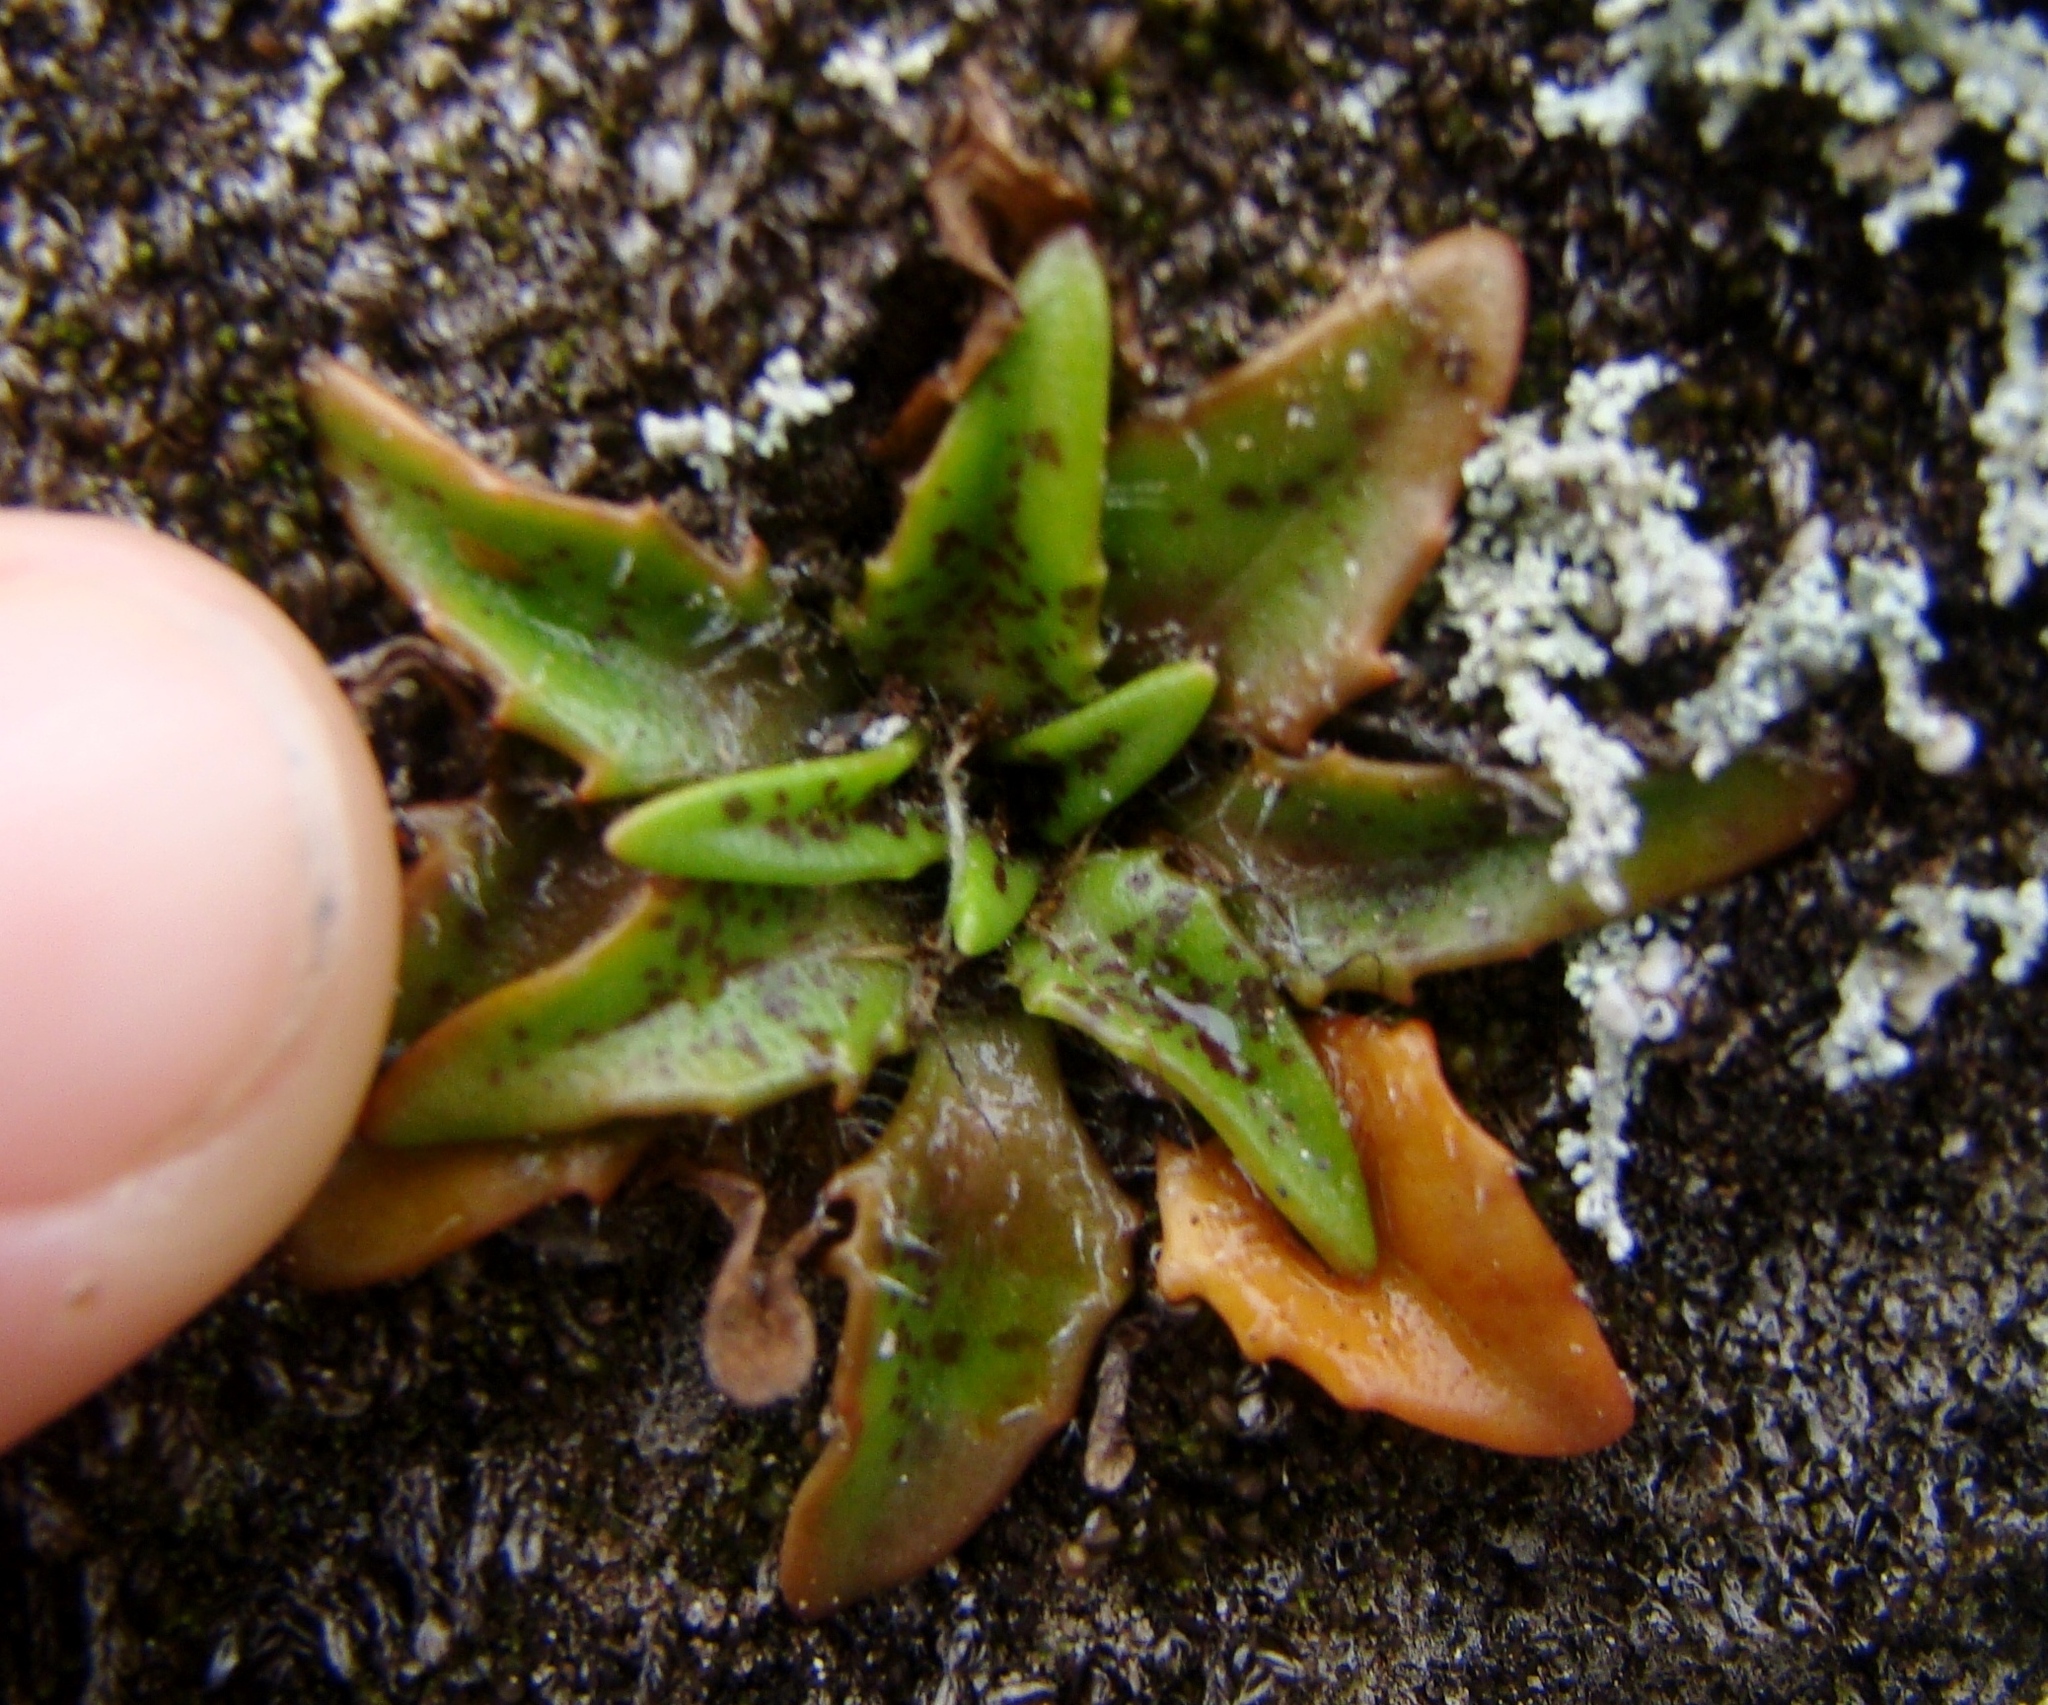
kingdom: Plantae
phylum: Tracheophyta
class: Magnoliopsida
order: Lamiales
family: Plantaginaceae
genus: Plantago
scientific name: Plantago triandra
